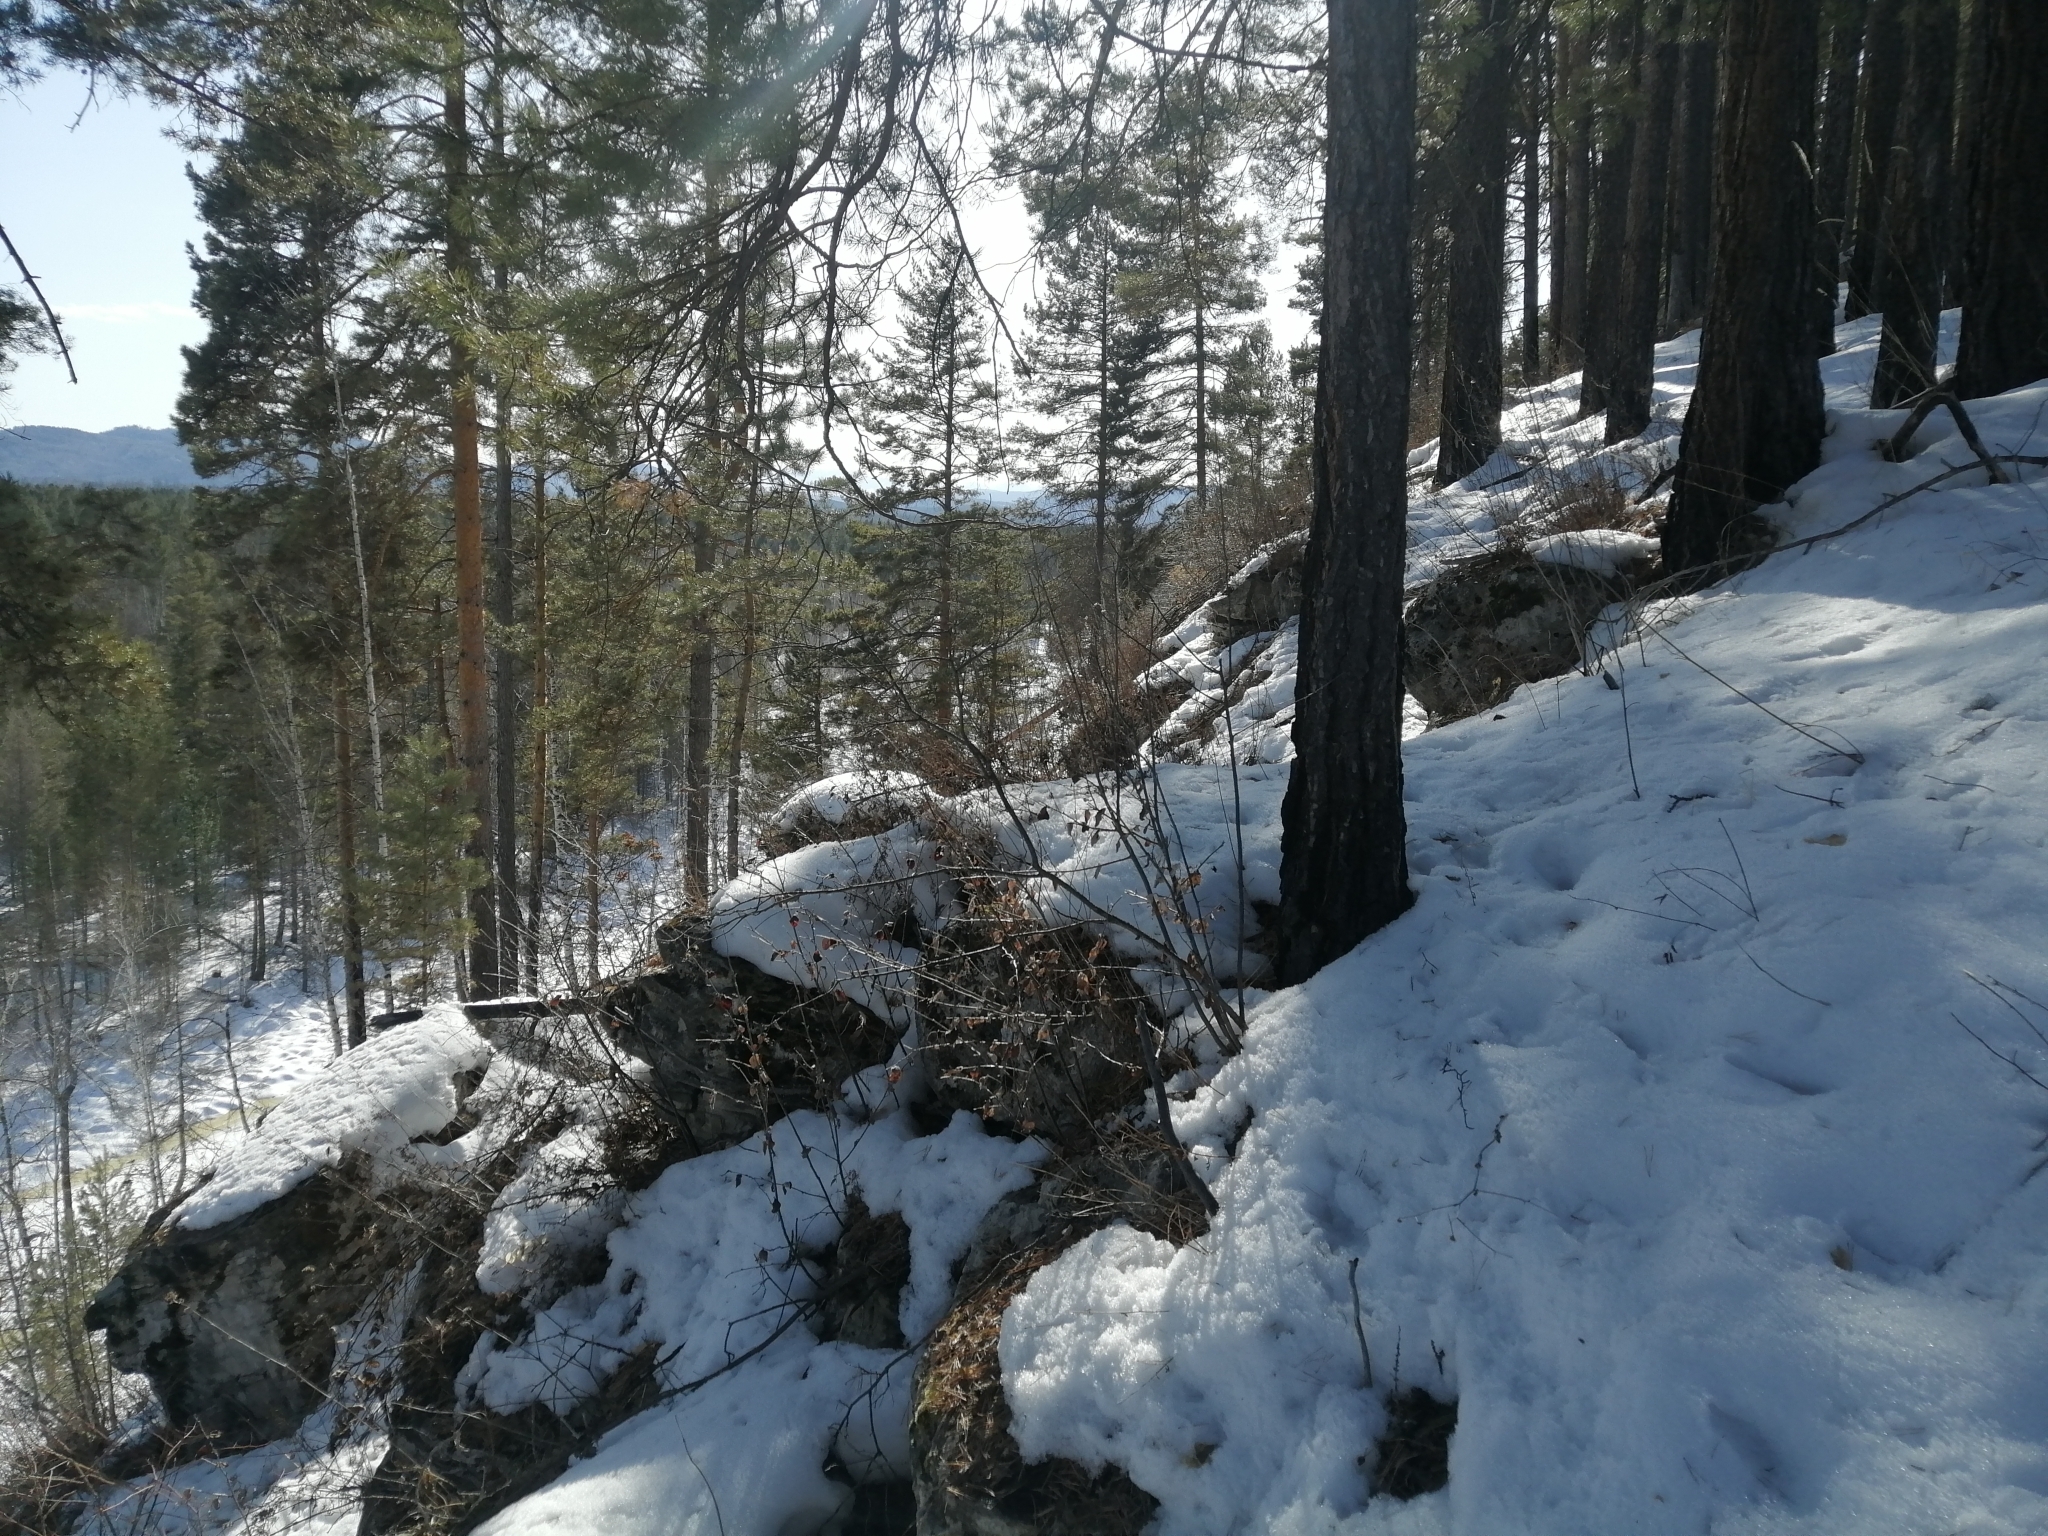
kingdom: Plantae
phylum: Tracheophyta
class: Pinopsida
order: Pinales
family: Pinaceae
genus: Pinus
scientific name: Pinus sylvestris
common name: Scots pine
